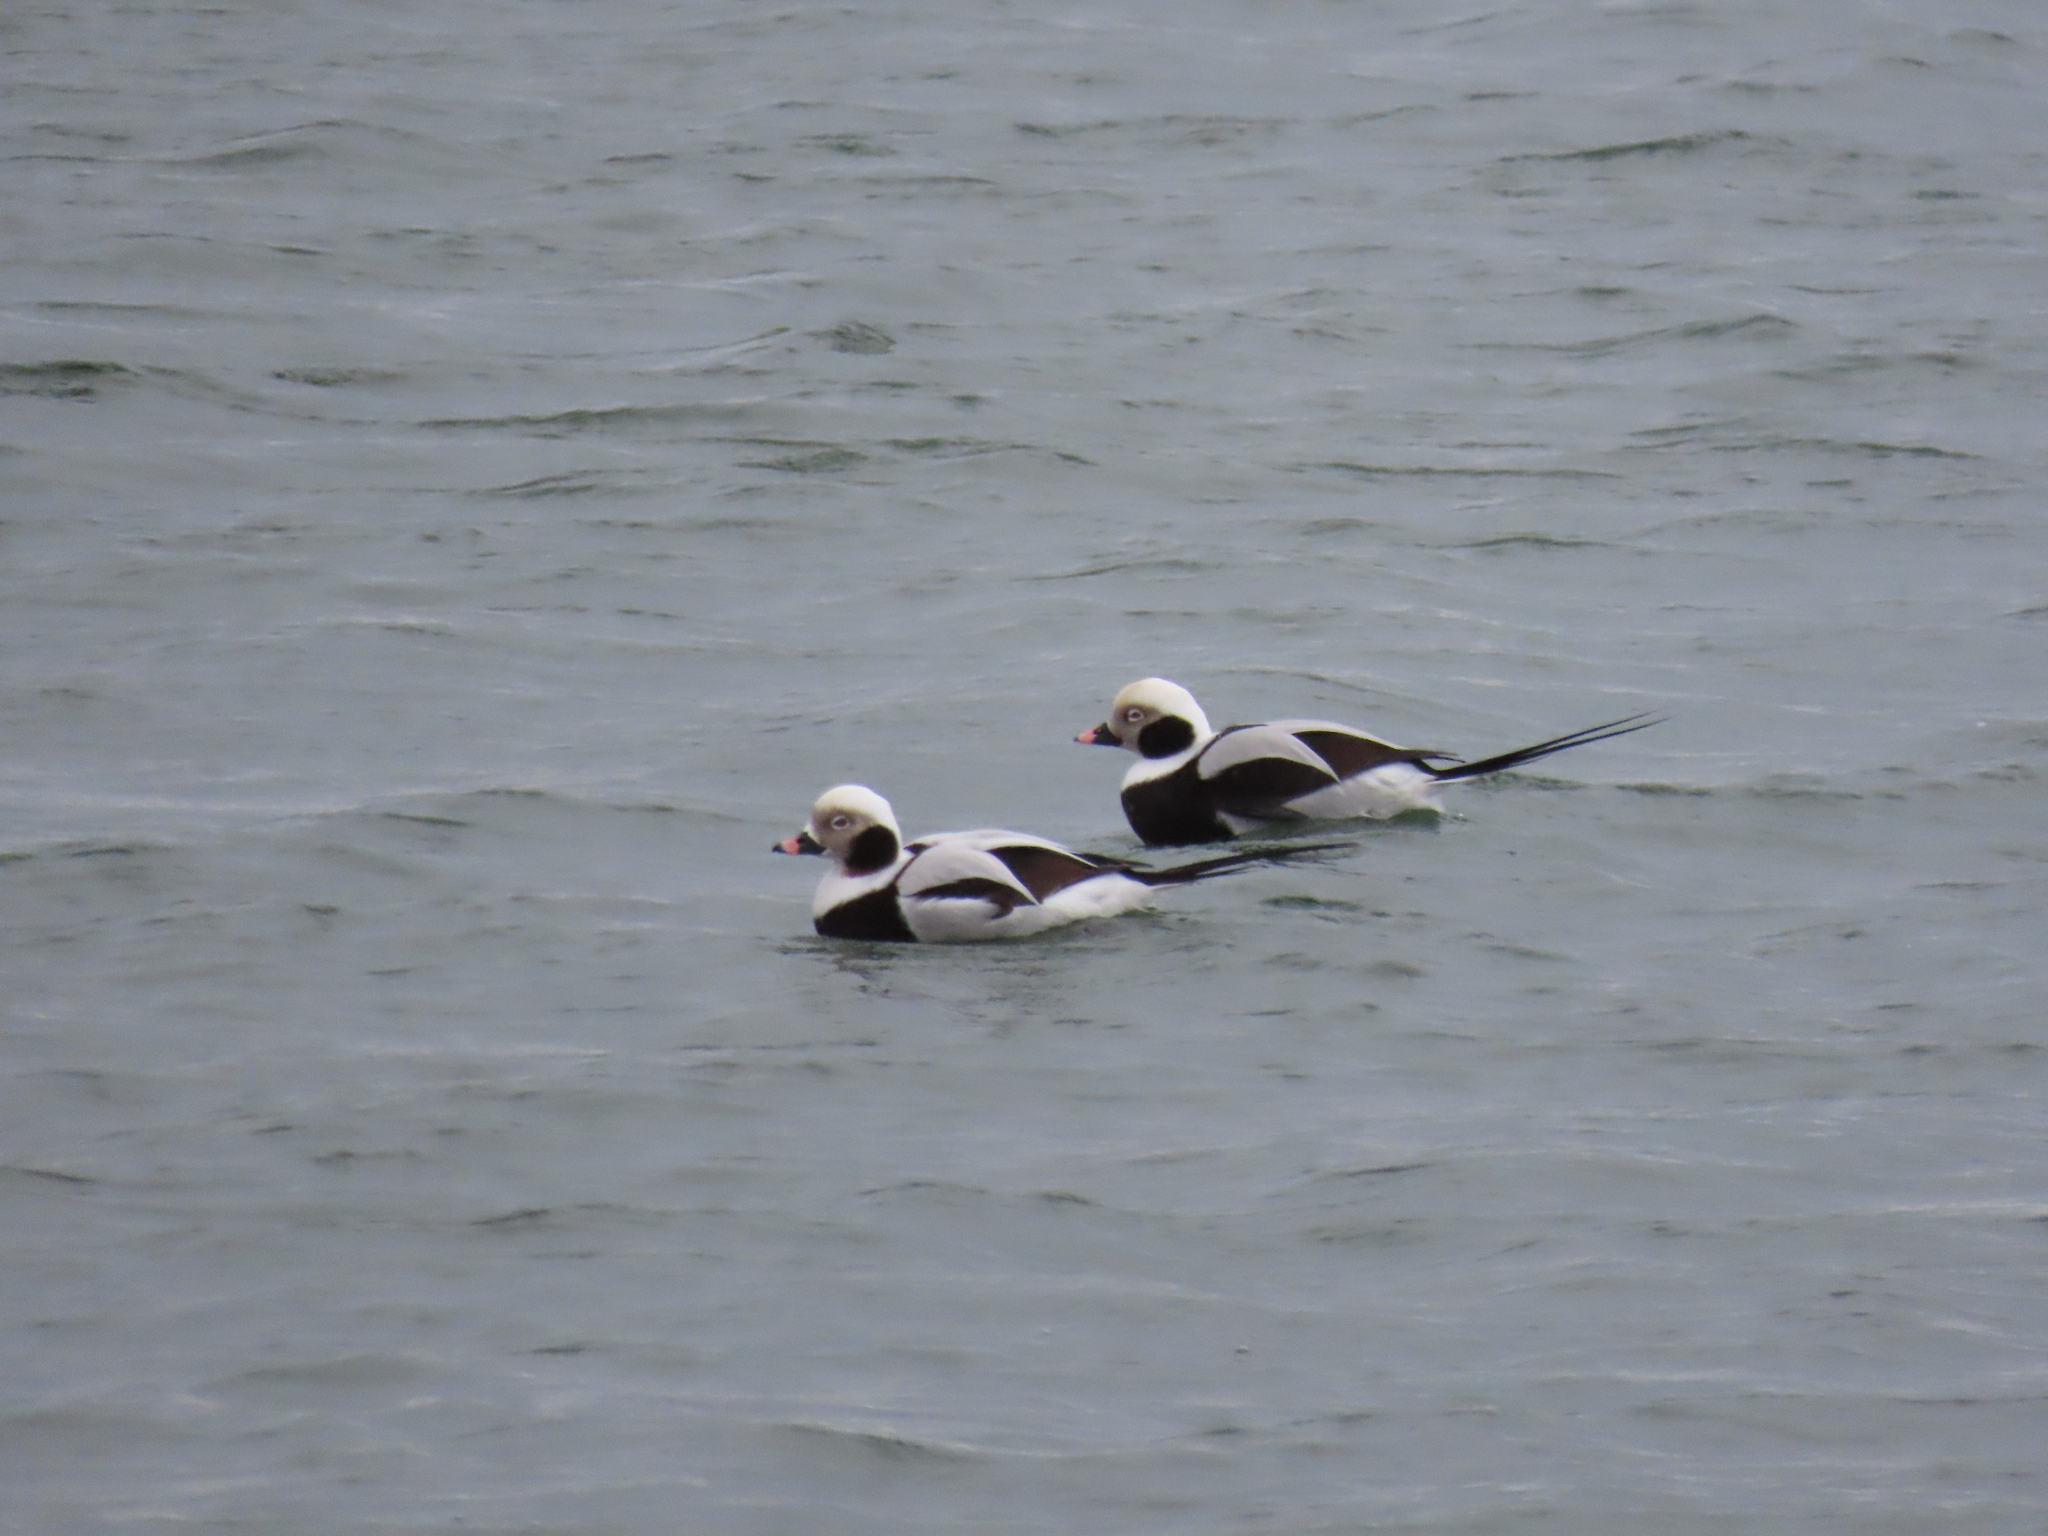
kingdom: Animalia
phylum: Chordata
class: Aves
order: Anseriformes
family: Anatidae
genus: Clangula
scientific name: Clangula hyemalis
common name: Long-tailed duck
